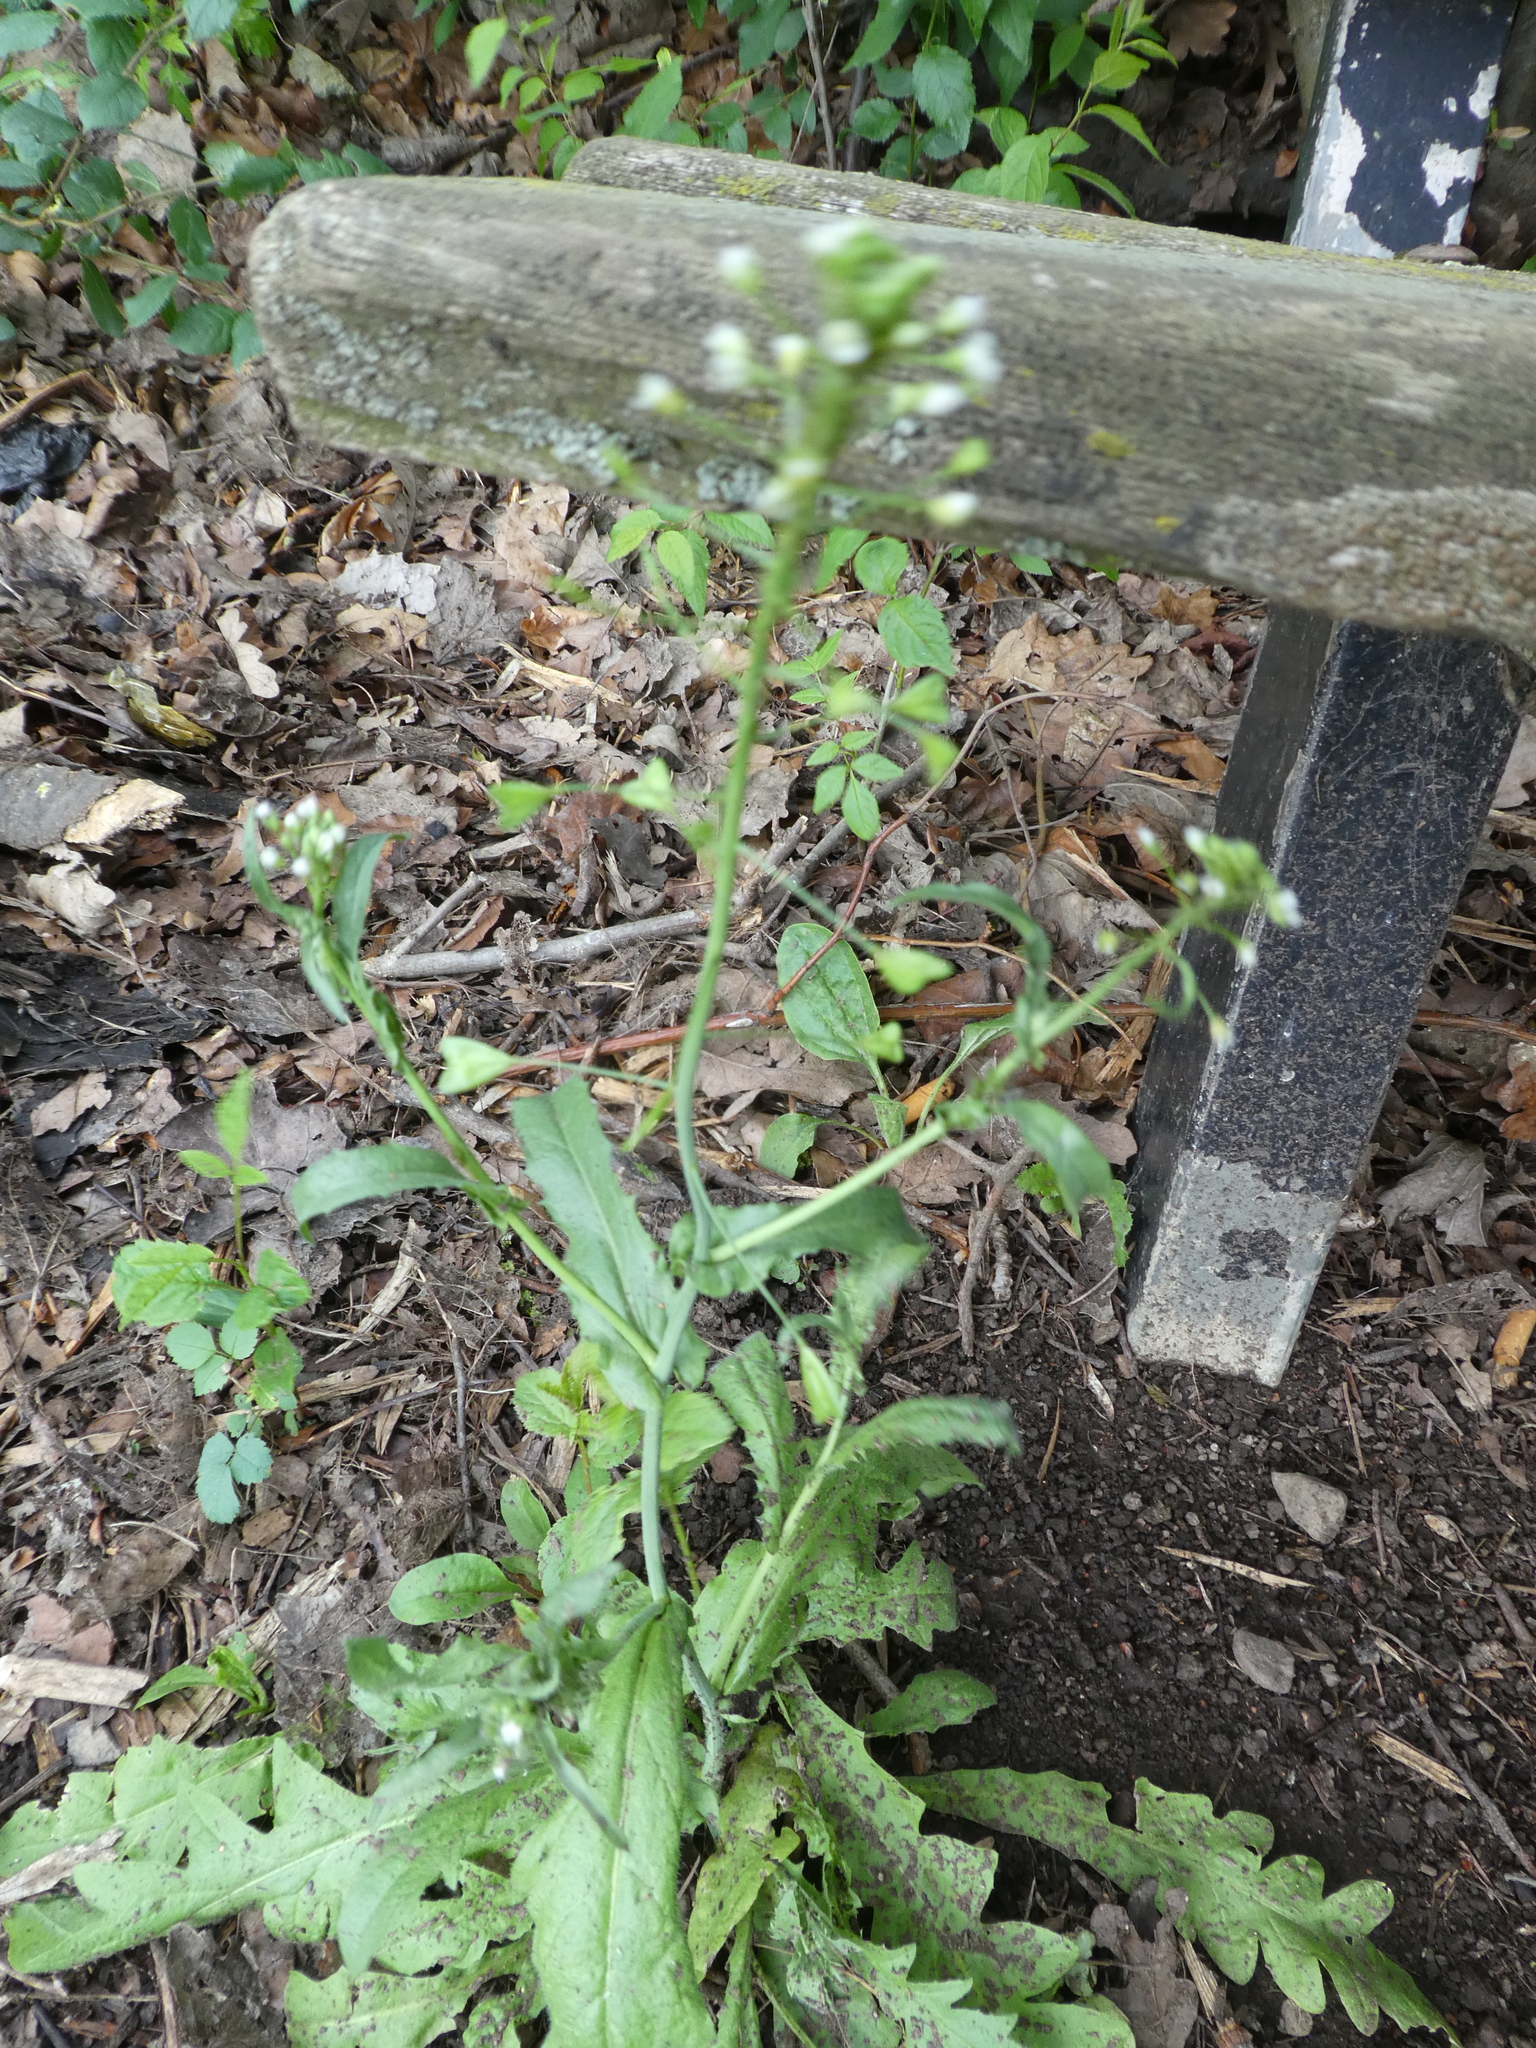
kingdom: Plantae
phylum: Tracheophyta
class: Magnoliopsida
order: Brassicales
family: Brassicaceae
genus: Capsella
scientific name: Capsella bursa-pastoris
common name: Shepherd's purse
